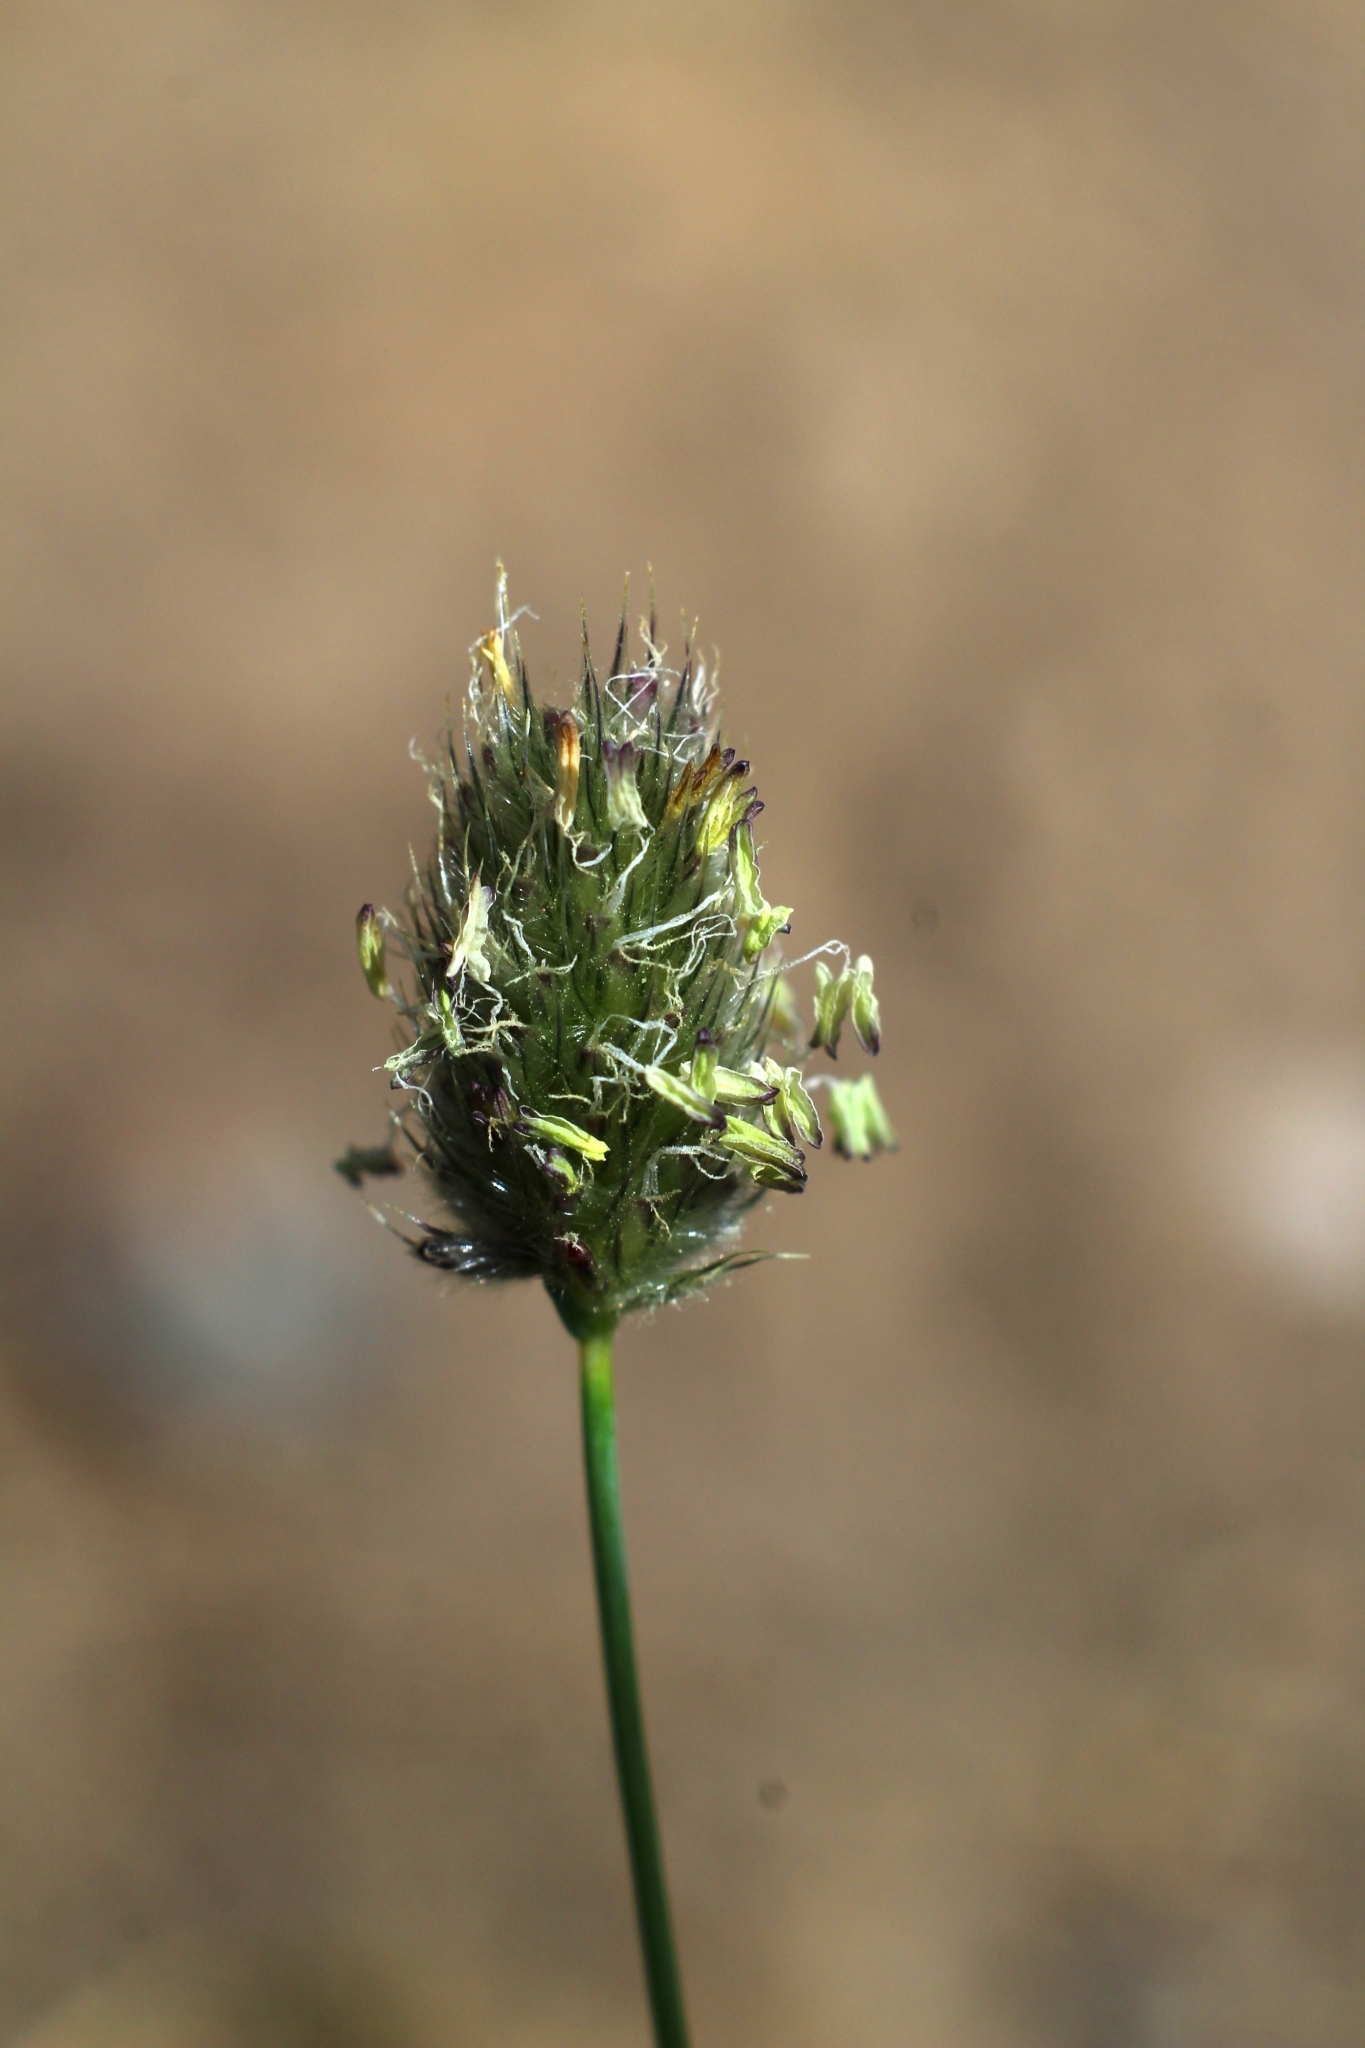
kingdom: Plantae
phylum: Tracheophyta
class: Liliopsida
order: Poales
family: Poaceae
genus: Alopecurus
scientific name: Alopecurus gerardii
